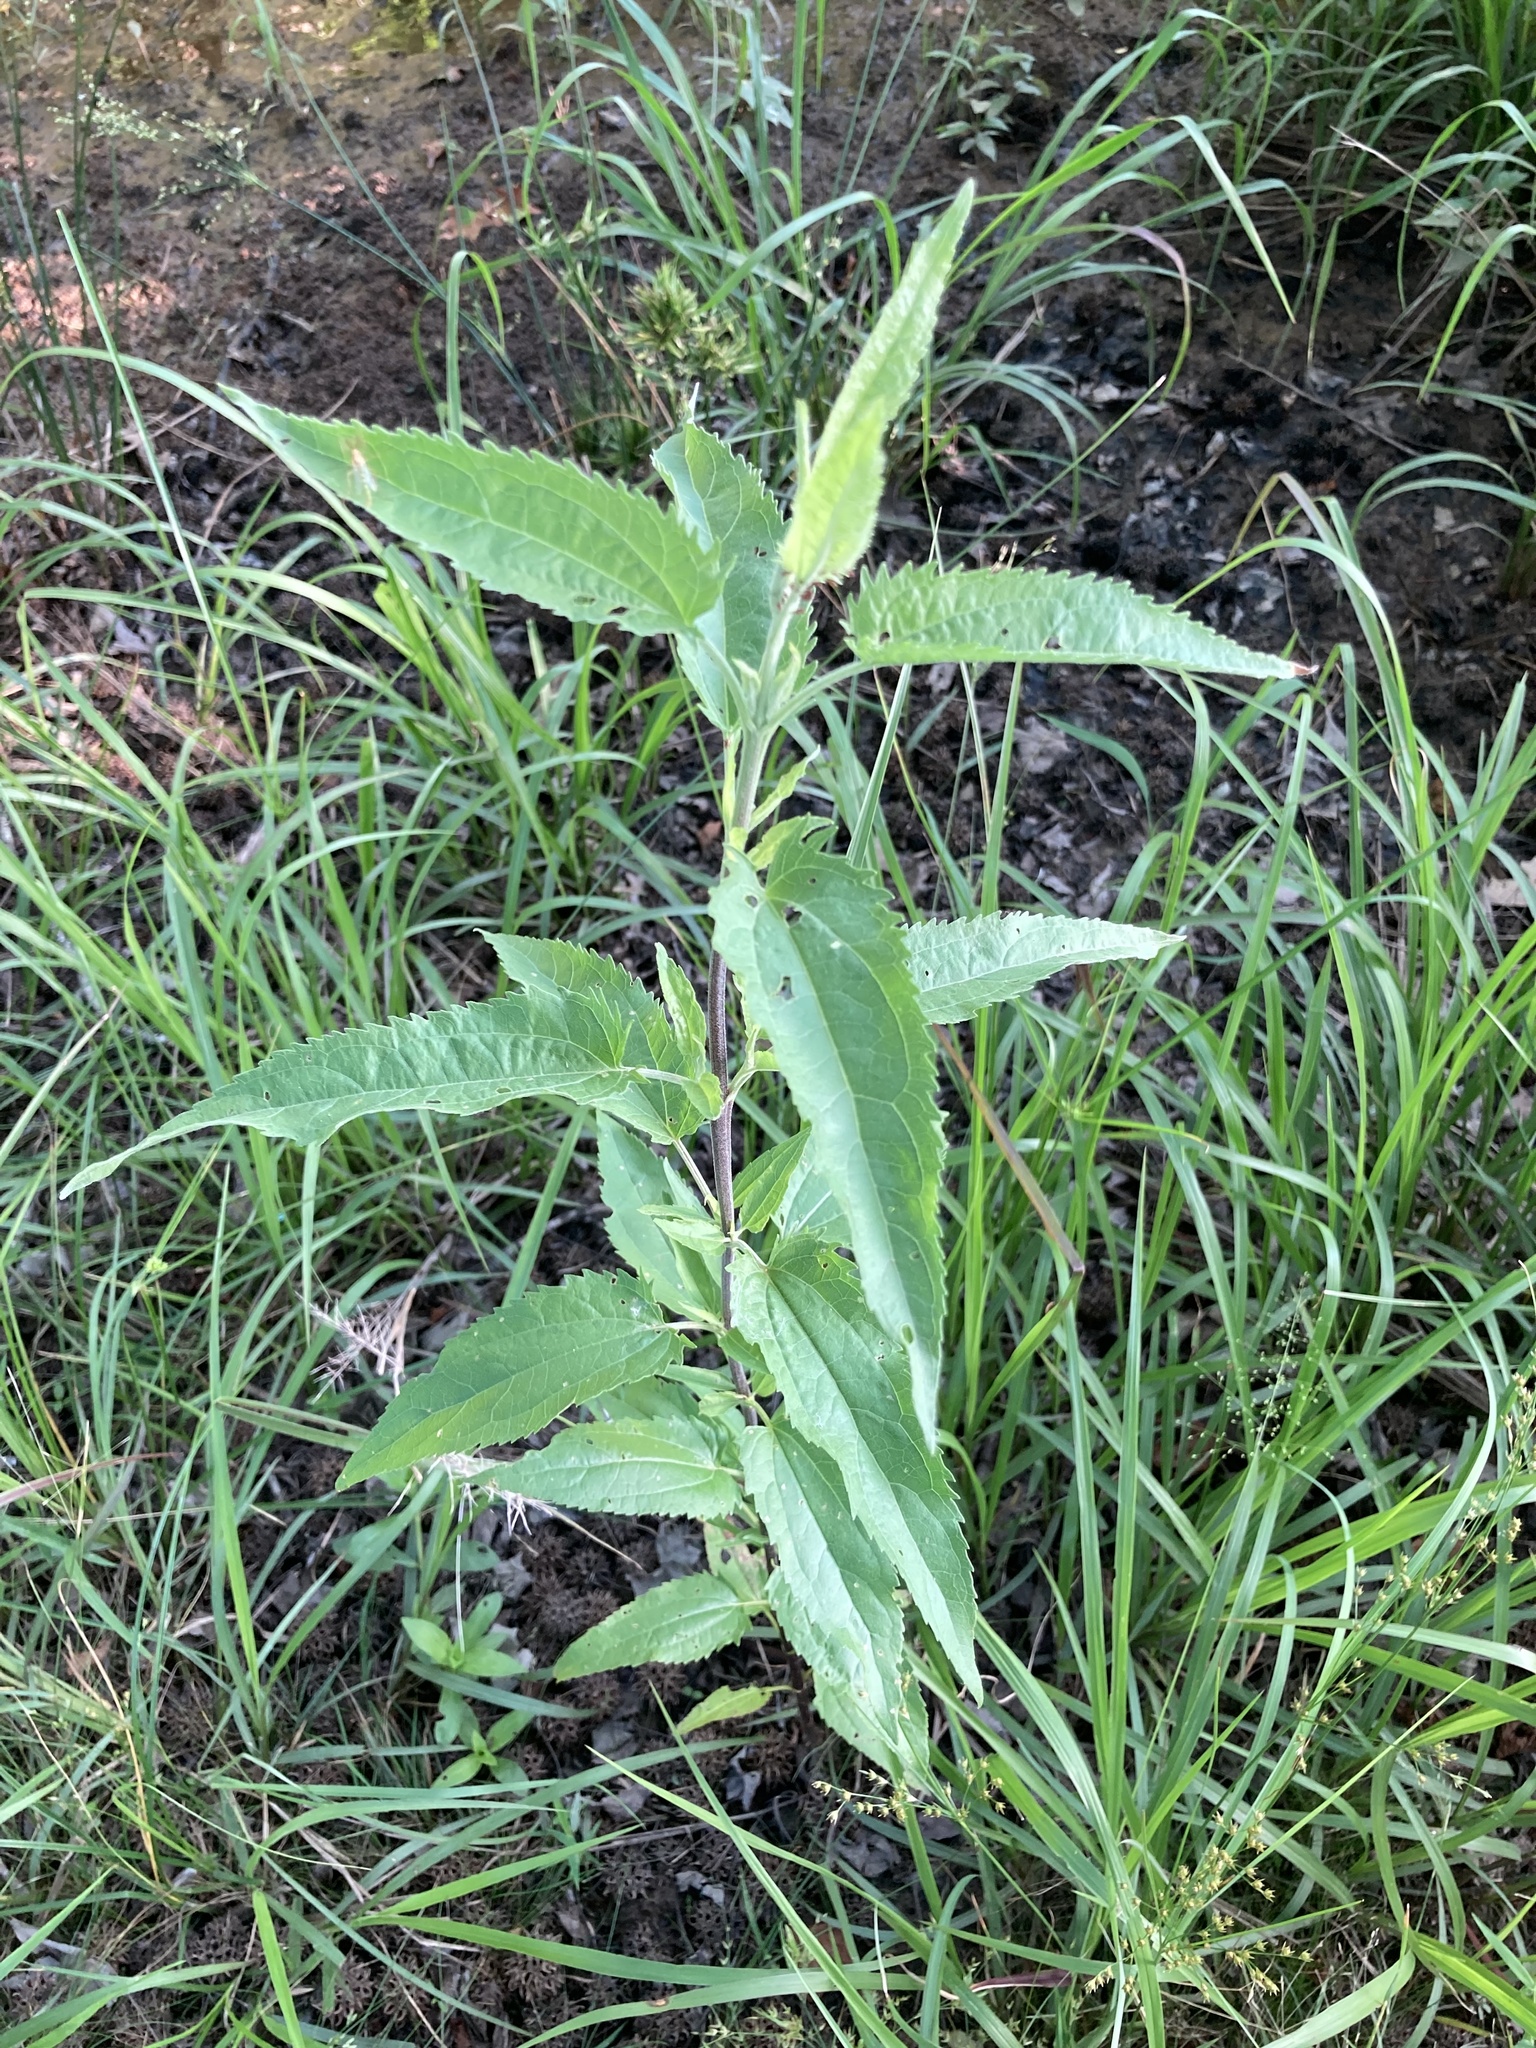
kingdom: Plantae
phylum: Tracheophyta
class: Magnoliopsida
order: Asterales
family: Asteraceae
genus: Eupatorium
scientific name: Eupatorium serotinum
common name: Late boneset
